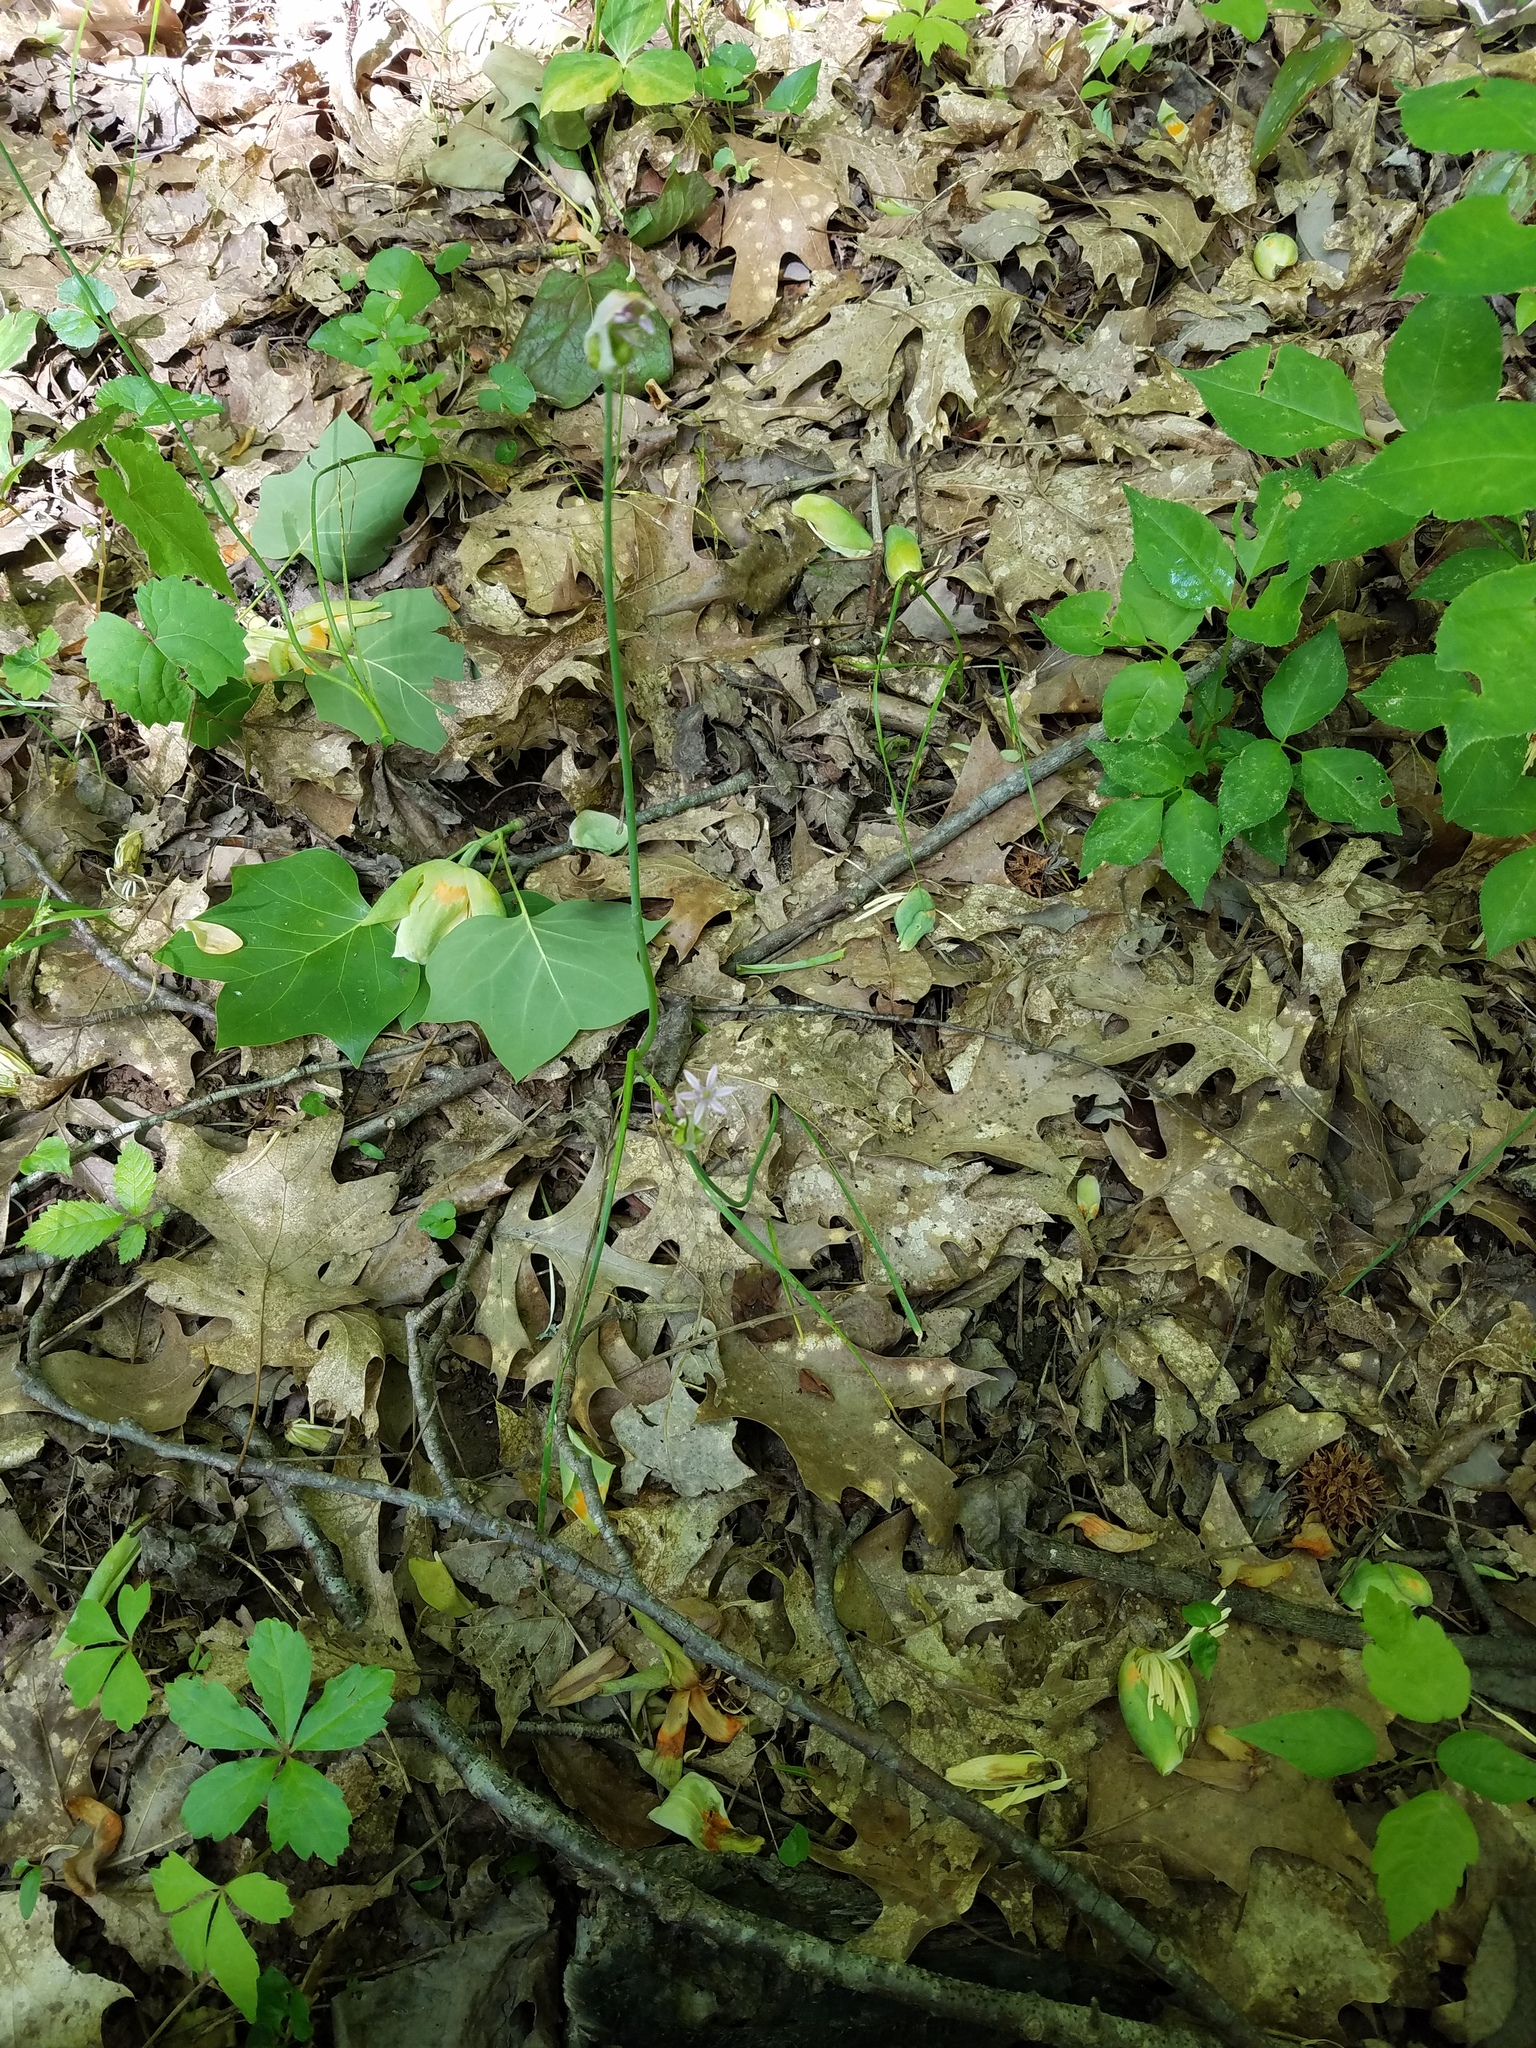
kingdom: Plantae
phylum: Tracheophyta
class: Liliopsida
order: Asparagales
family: Amaryllidaceae
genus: Allium
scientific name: Allium canadense
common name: Meadow garlic
